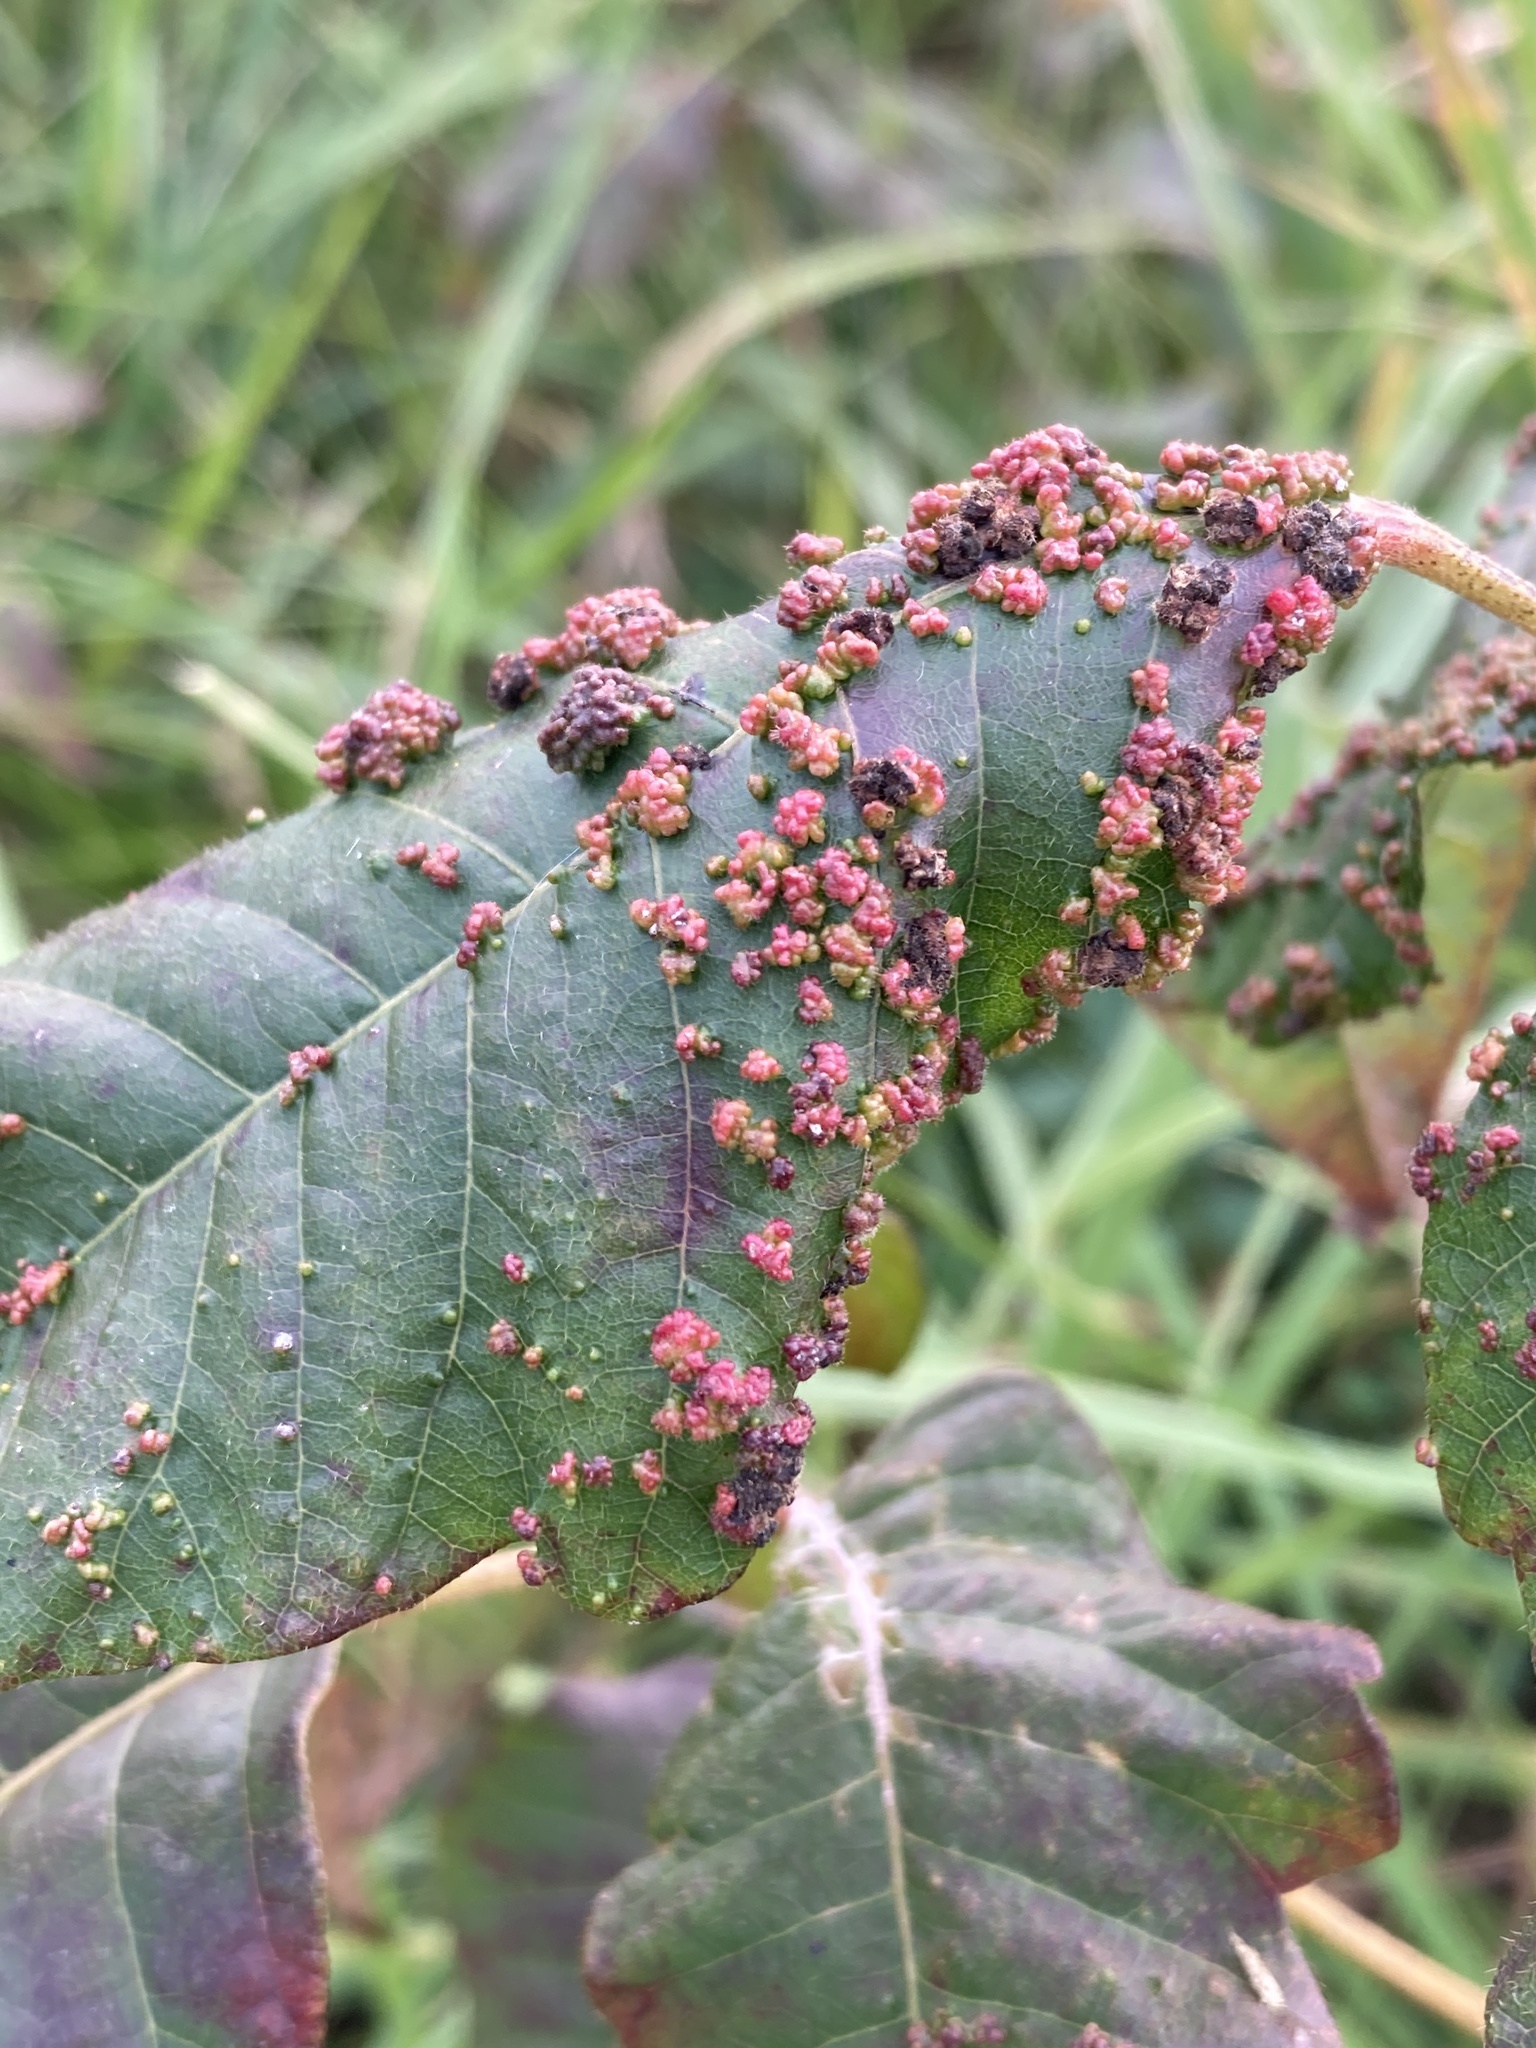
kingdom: Animalia
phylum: Arthropoda
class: Arachnida
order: Trombidiformes
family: Eriophyidae
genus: Aculops
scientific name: Aculops
